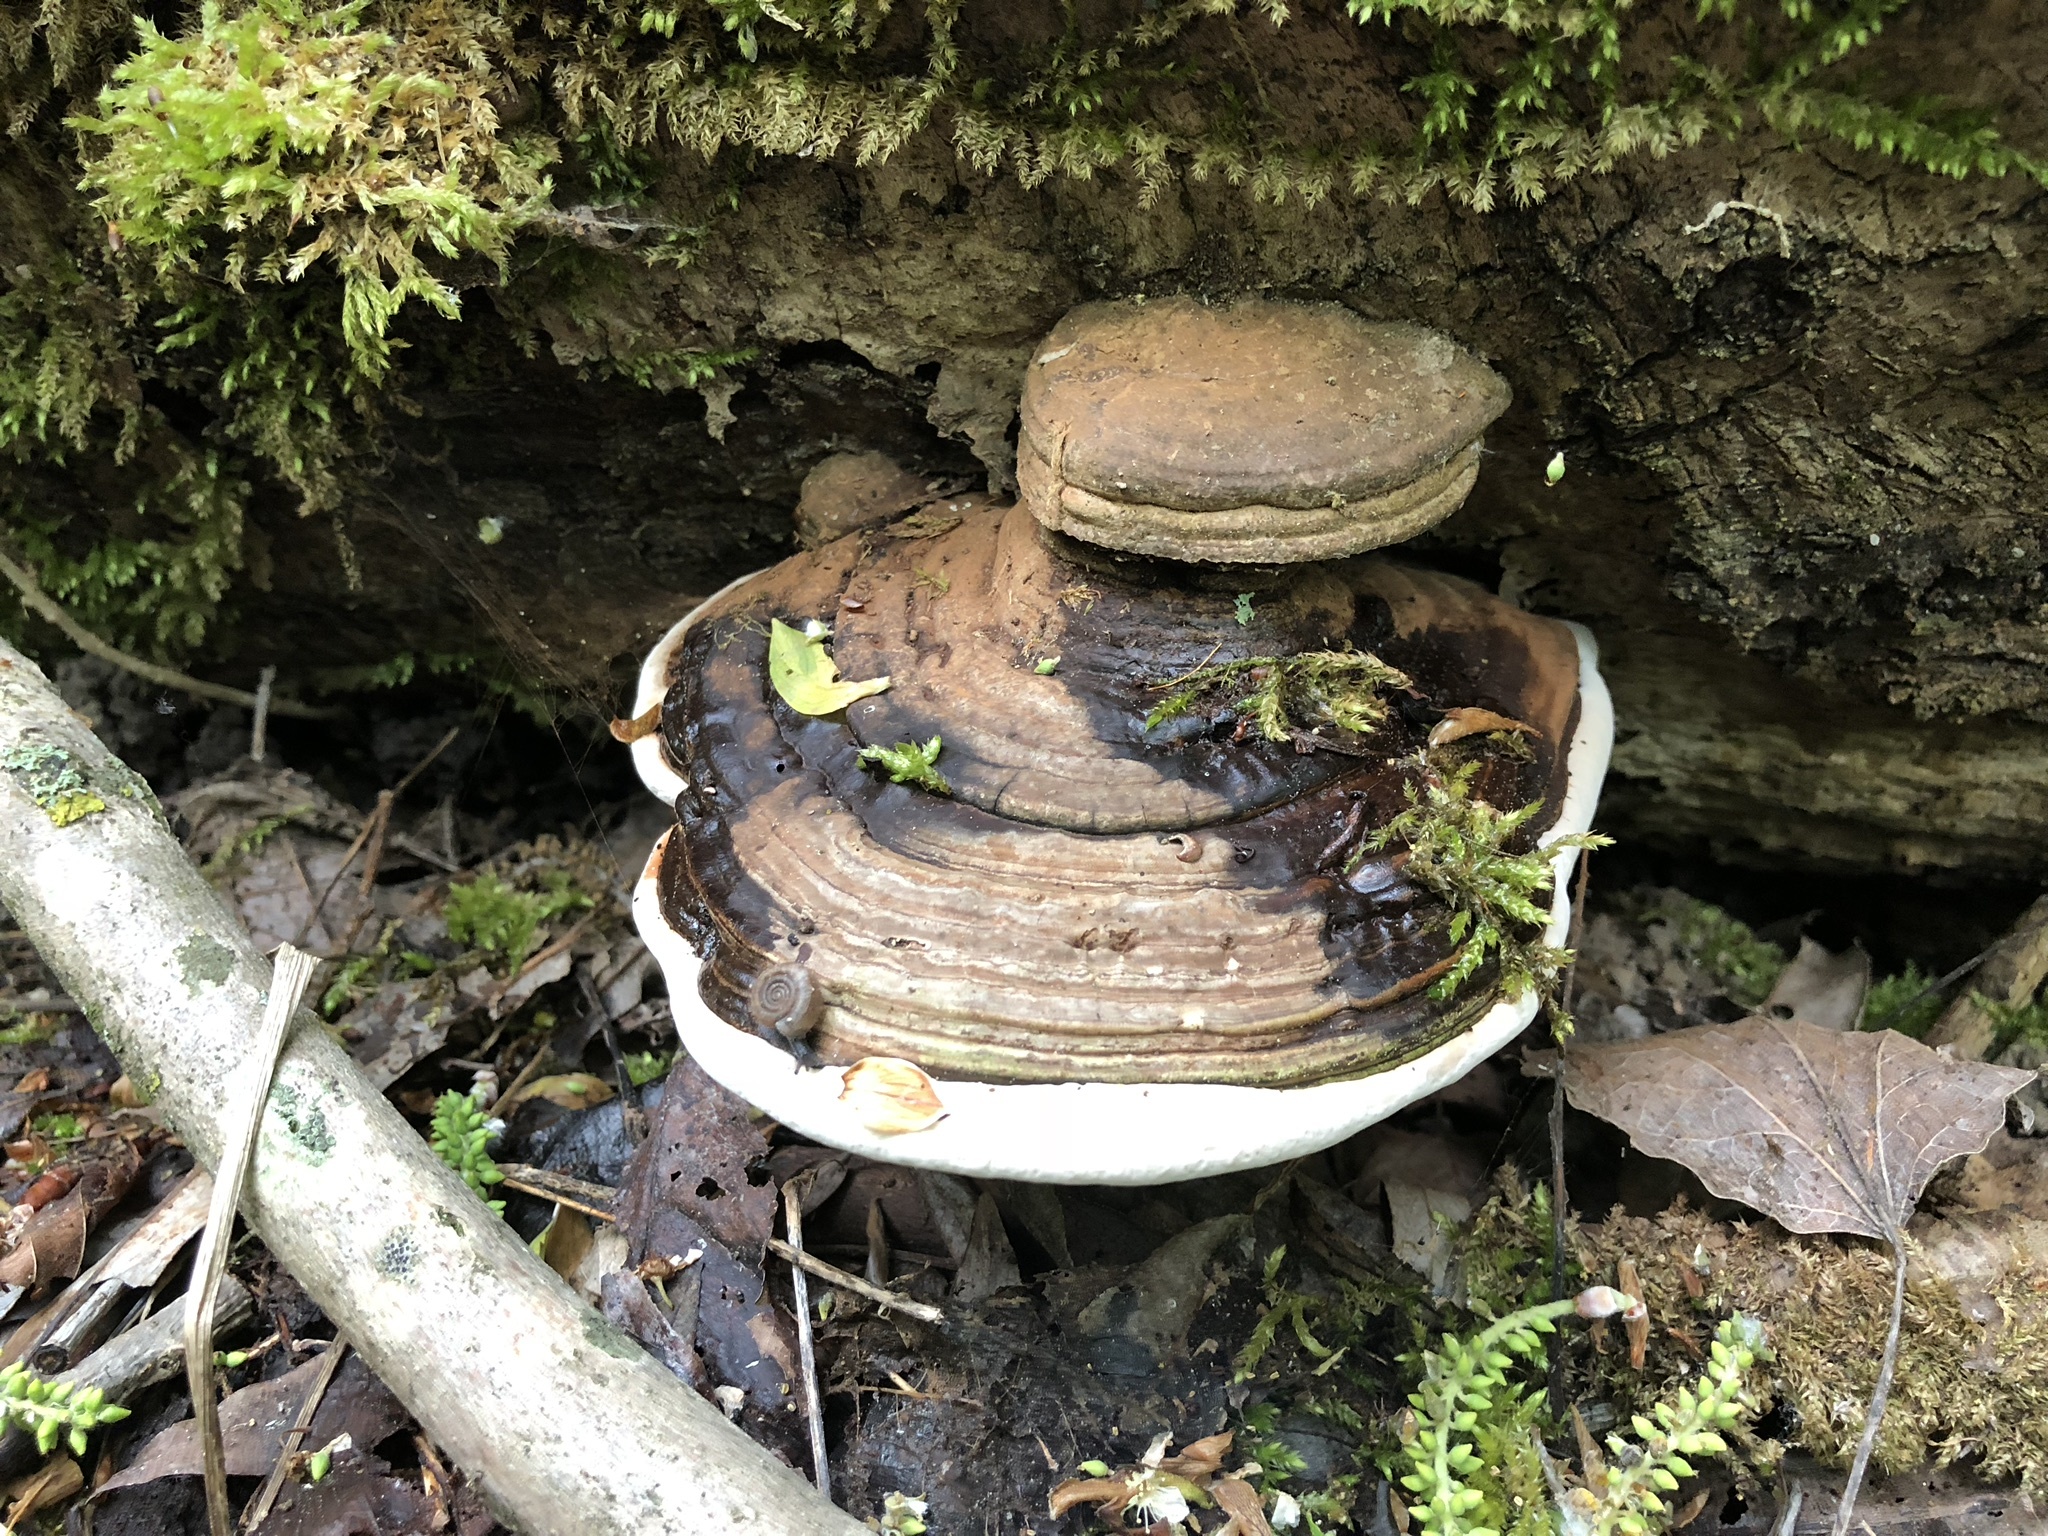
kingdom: Fungi
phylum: Basidiomycota
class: Agaricomycetes
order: Polyporales
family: Polyporaceae
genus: Ganoderma
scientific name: Ganoderma applanatum
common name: Artist's bracket
